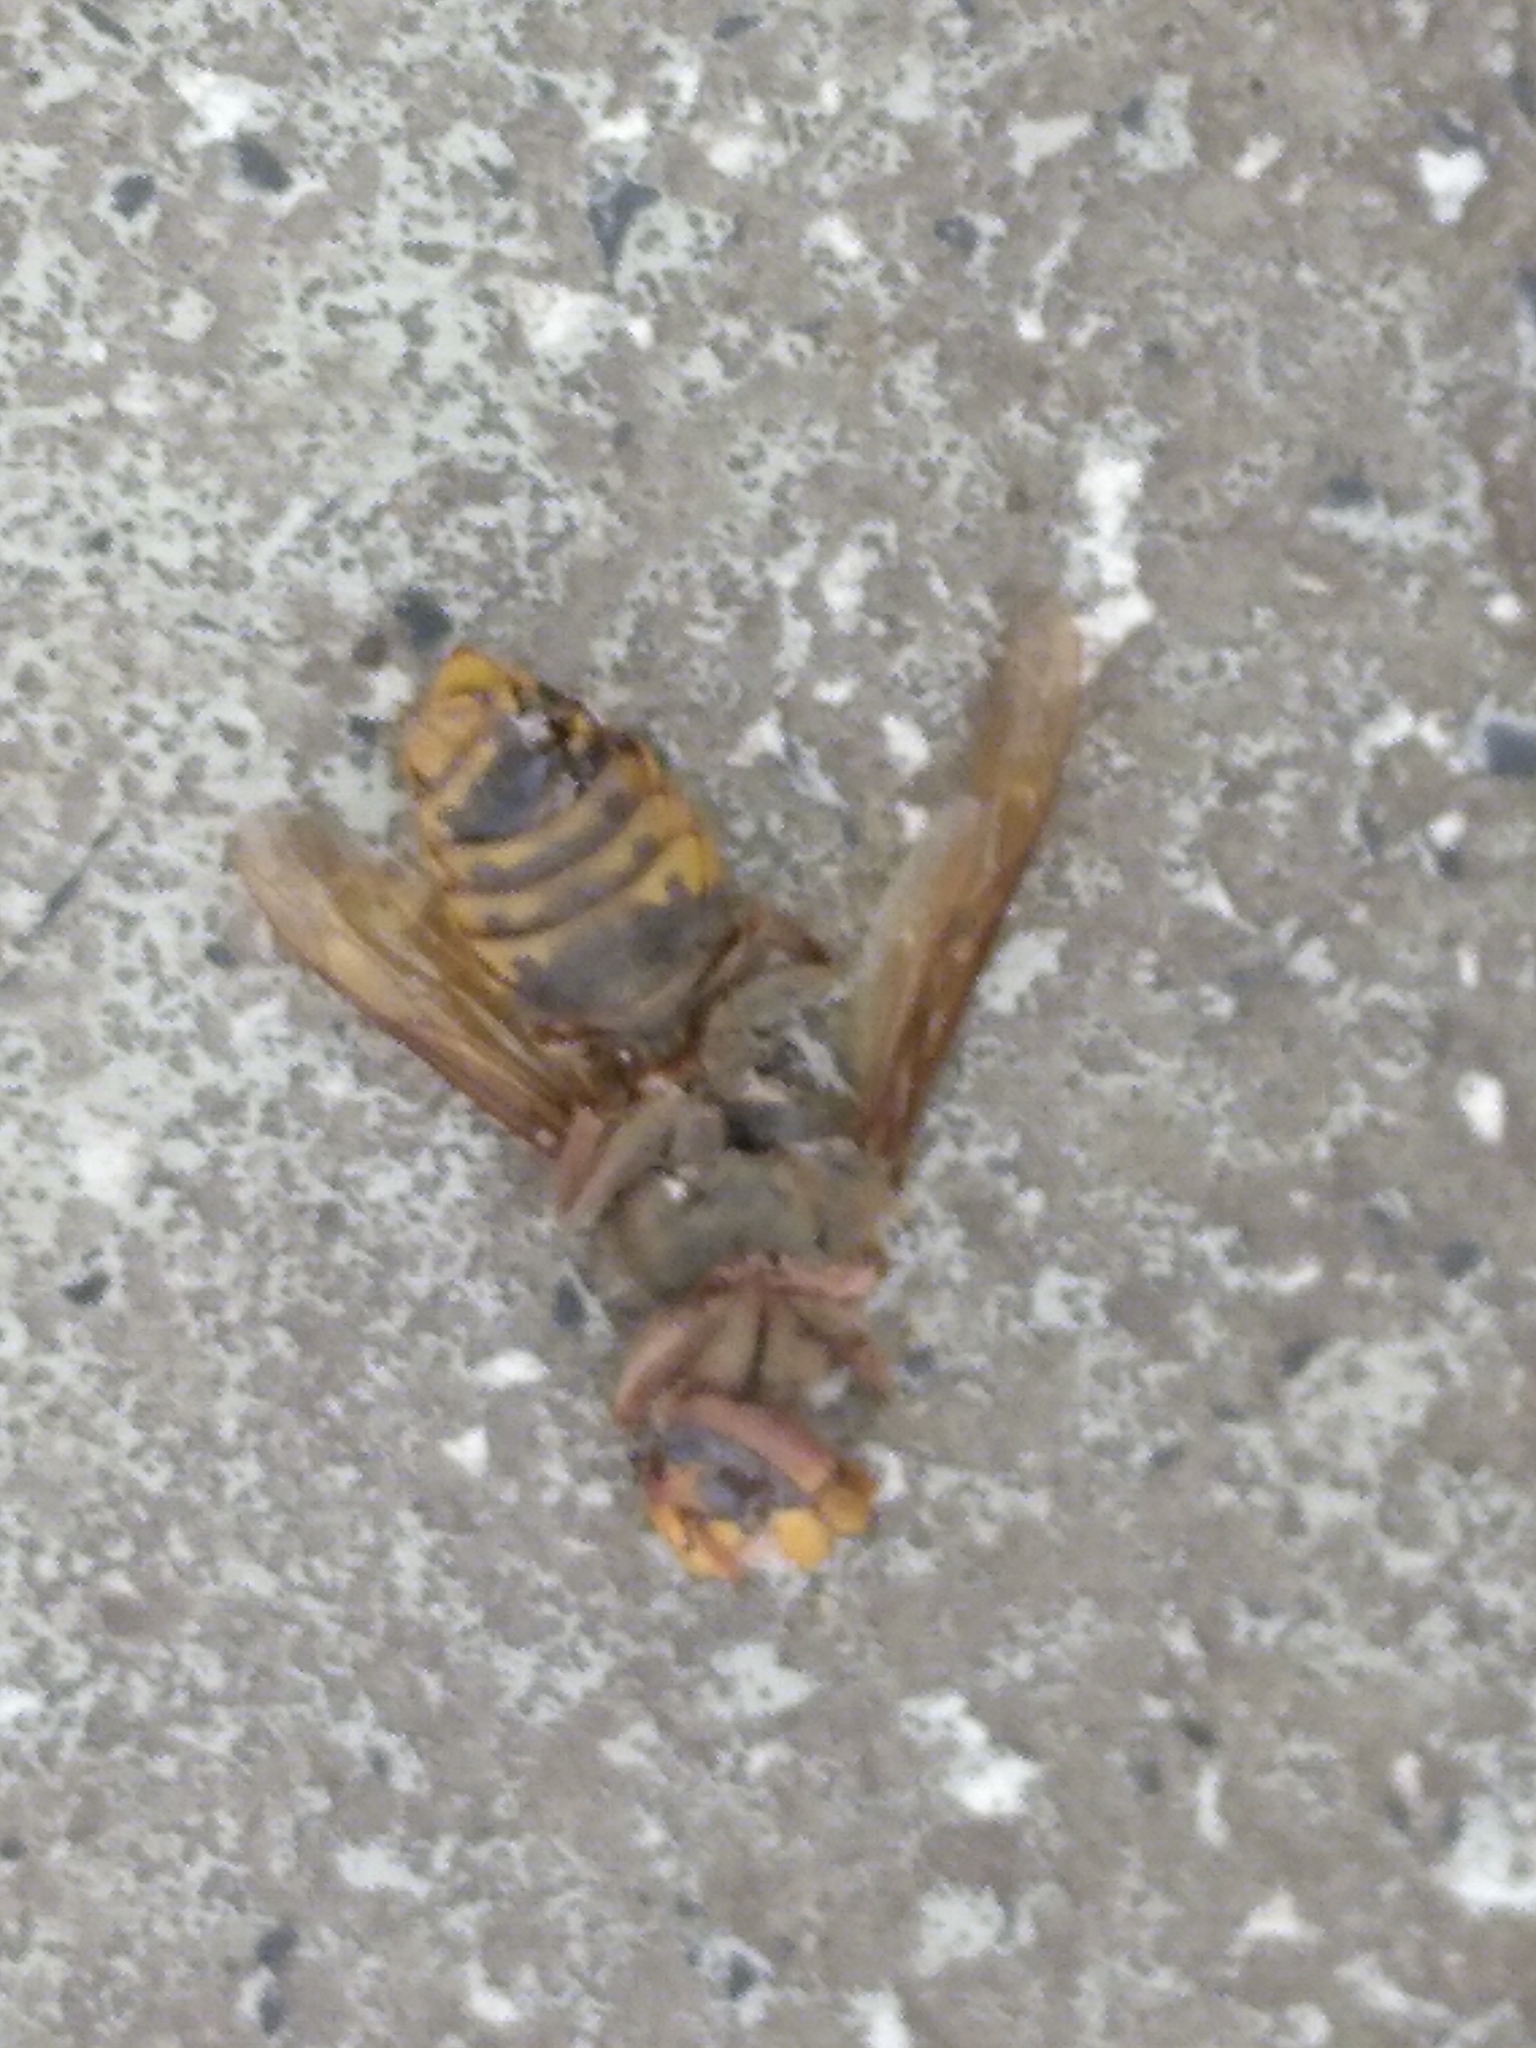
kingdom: Animalia
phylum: Arthropoda
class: Insecta
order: Hymenoptera
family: Vespidae
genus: Vespa
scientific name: Vespa crabro
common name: Hornet
